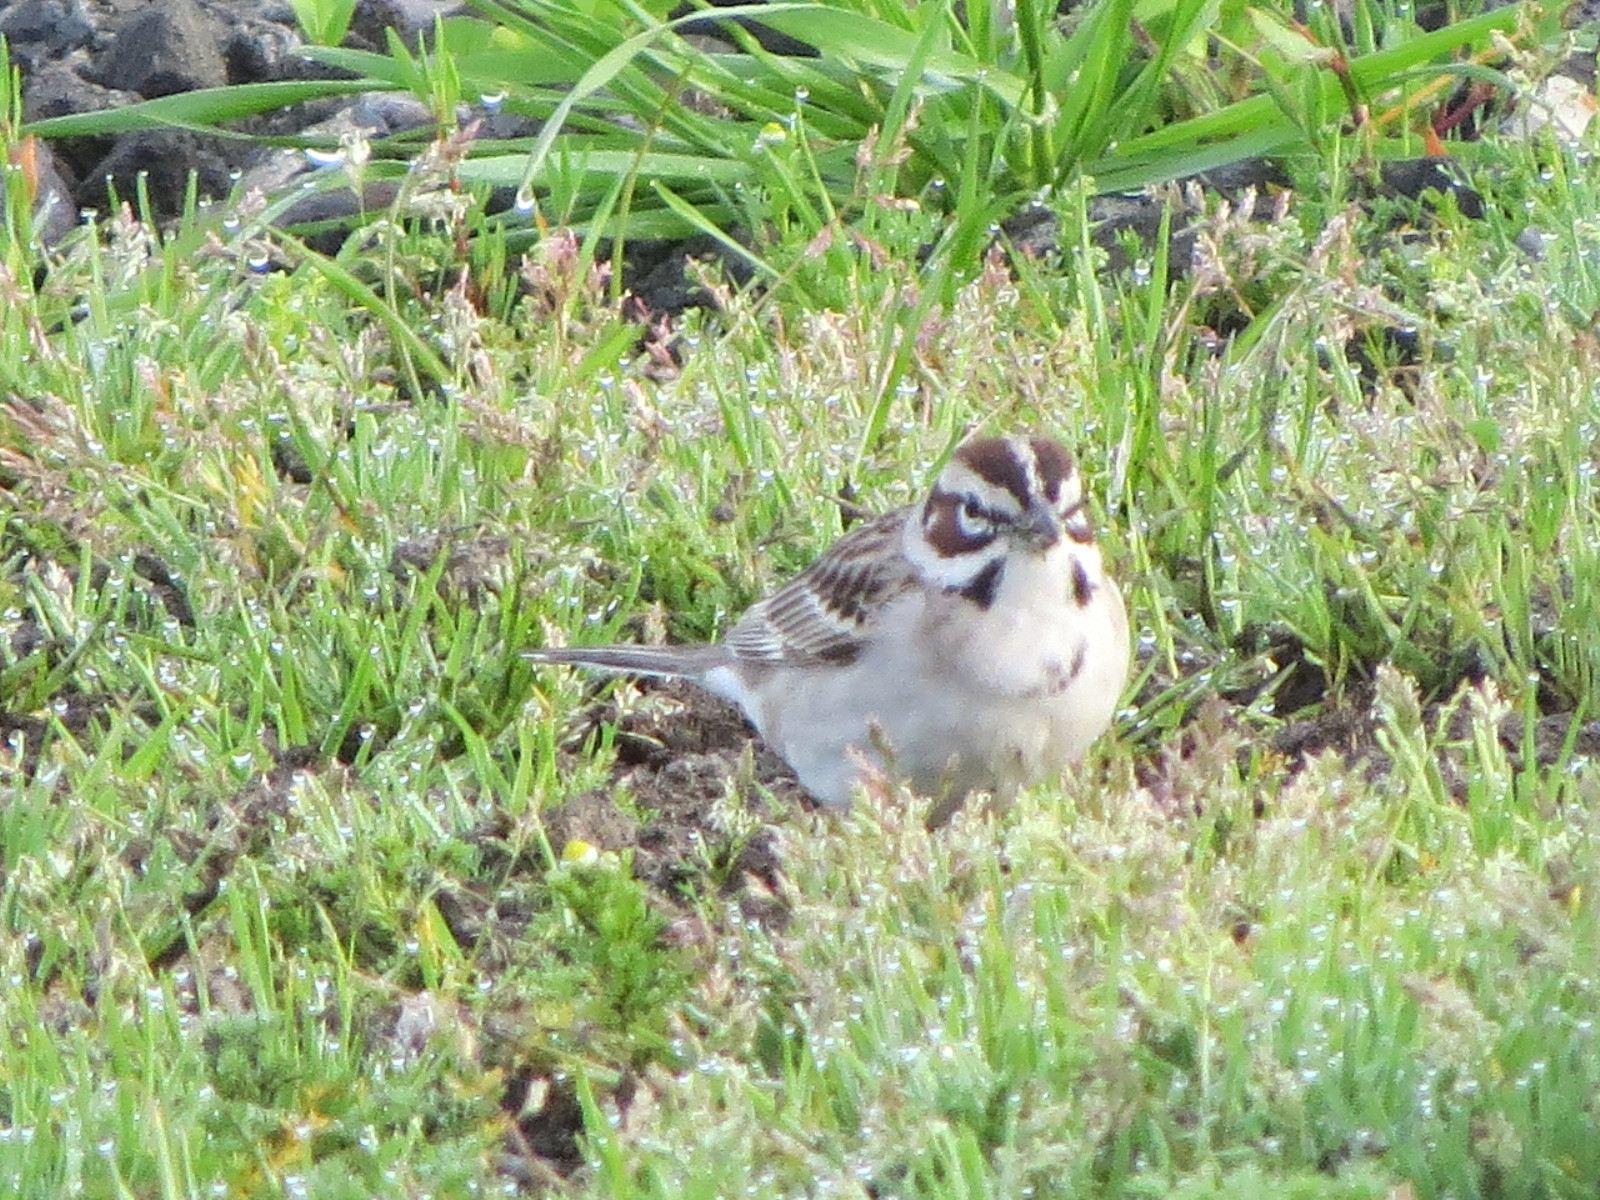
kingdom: Animalia
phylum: Chordata
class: Aves
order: Passeriformes
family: Passerellidae
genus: Chondestes
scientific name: Chondestes grammacus
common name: Lark sparrow
